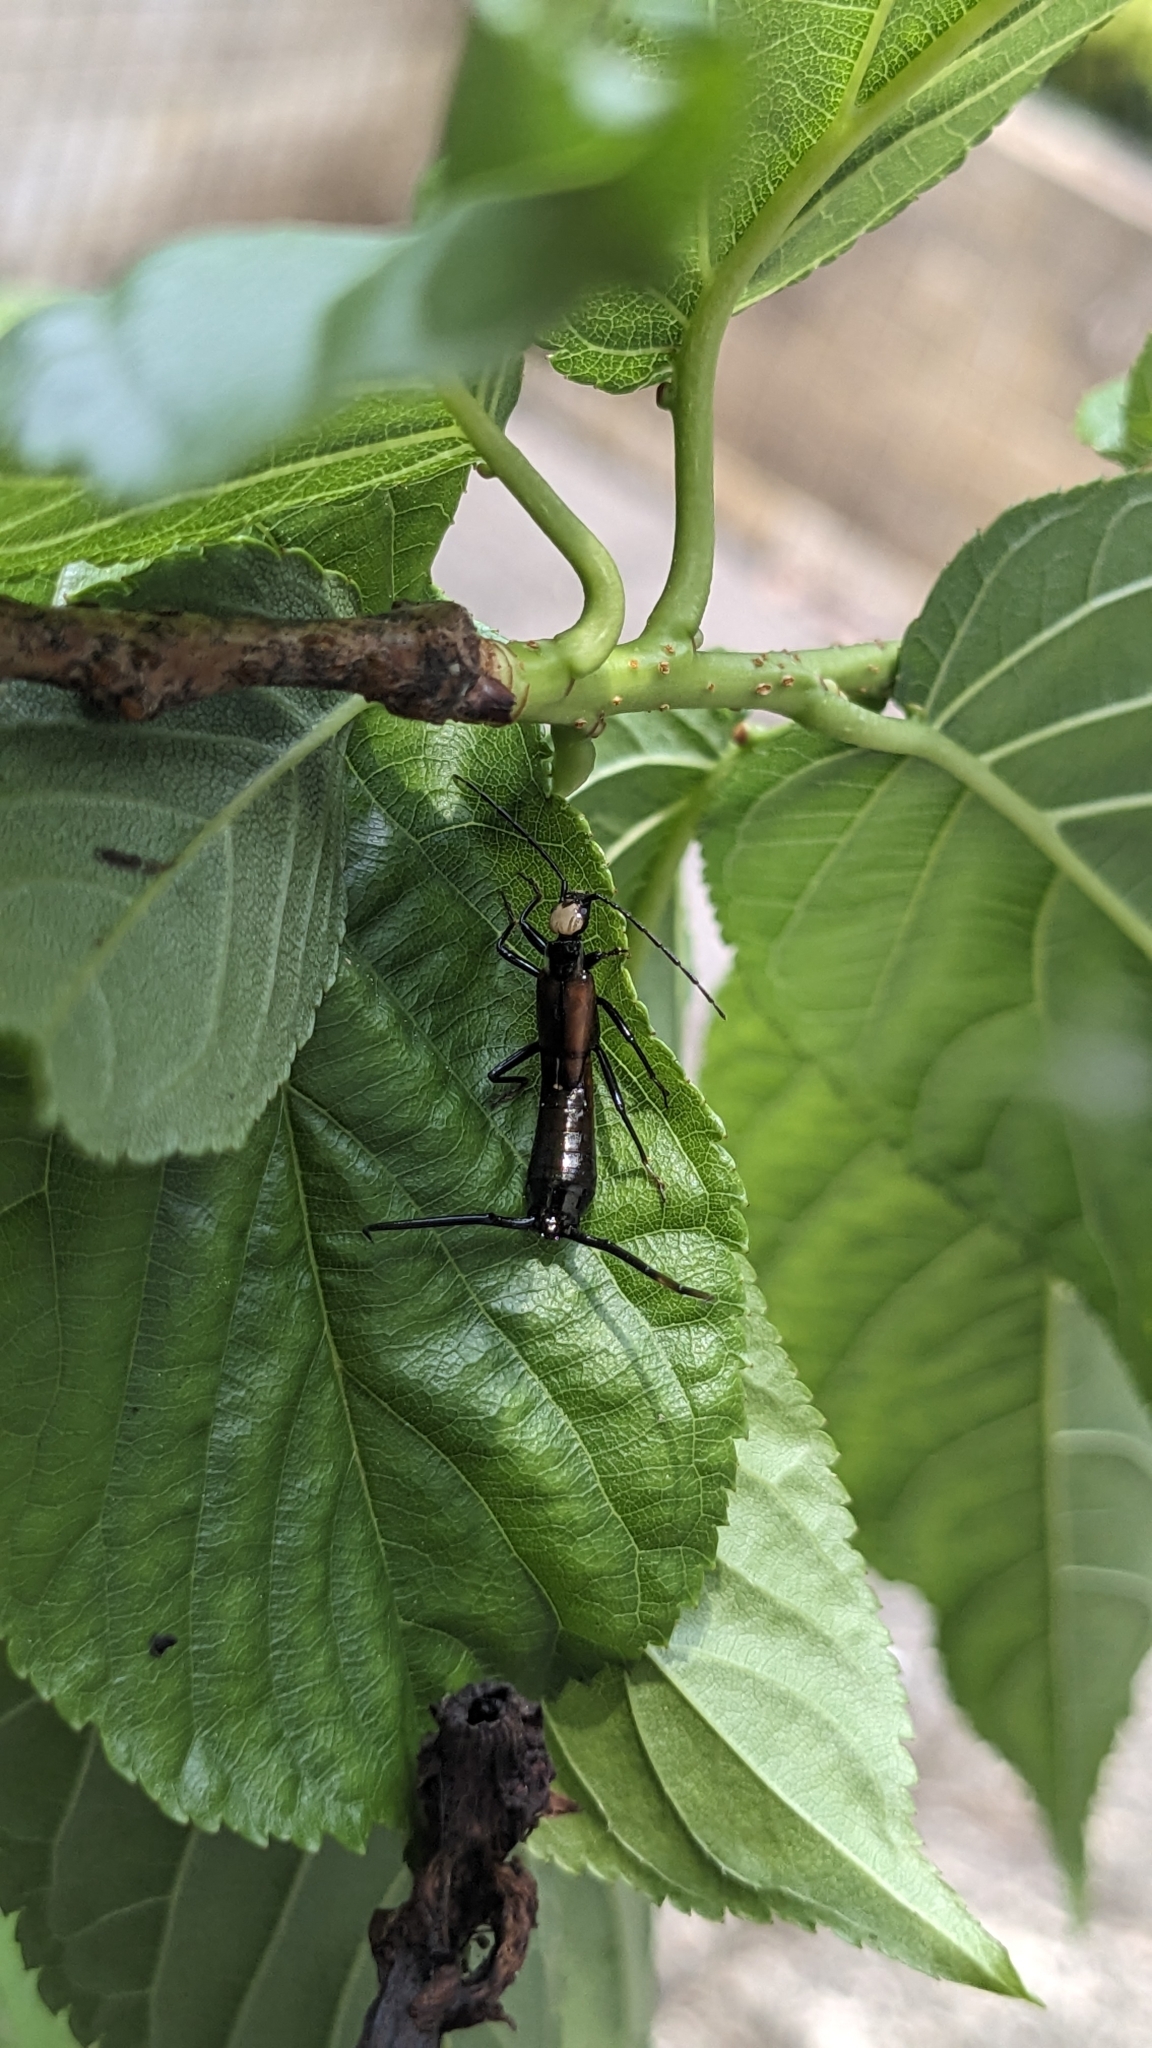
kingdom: Animalia
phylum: Arthropoda
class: Insecta
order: Dermaptera
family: Forficulidae
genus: Paratimomenus
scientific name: Paratimomenus flavocapitata
